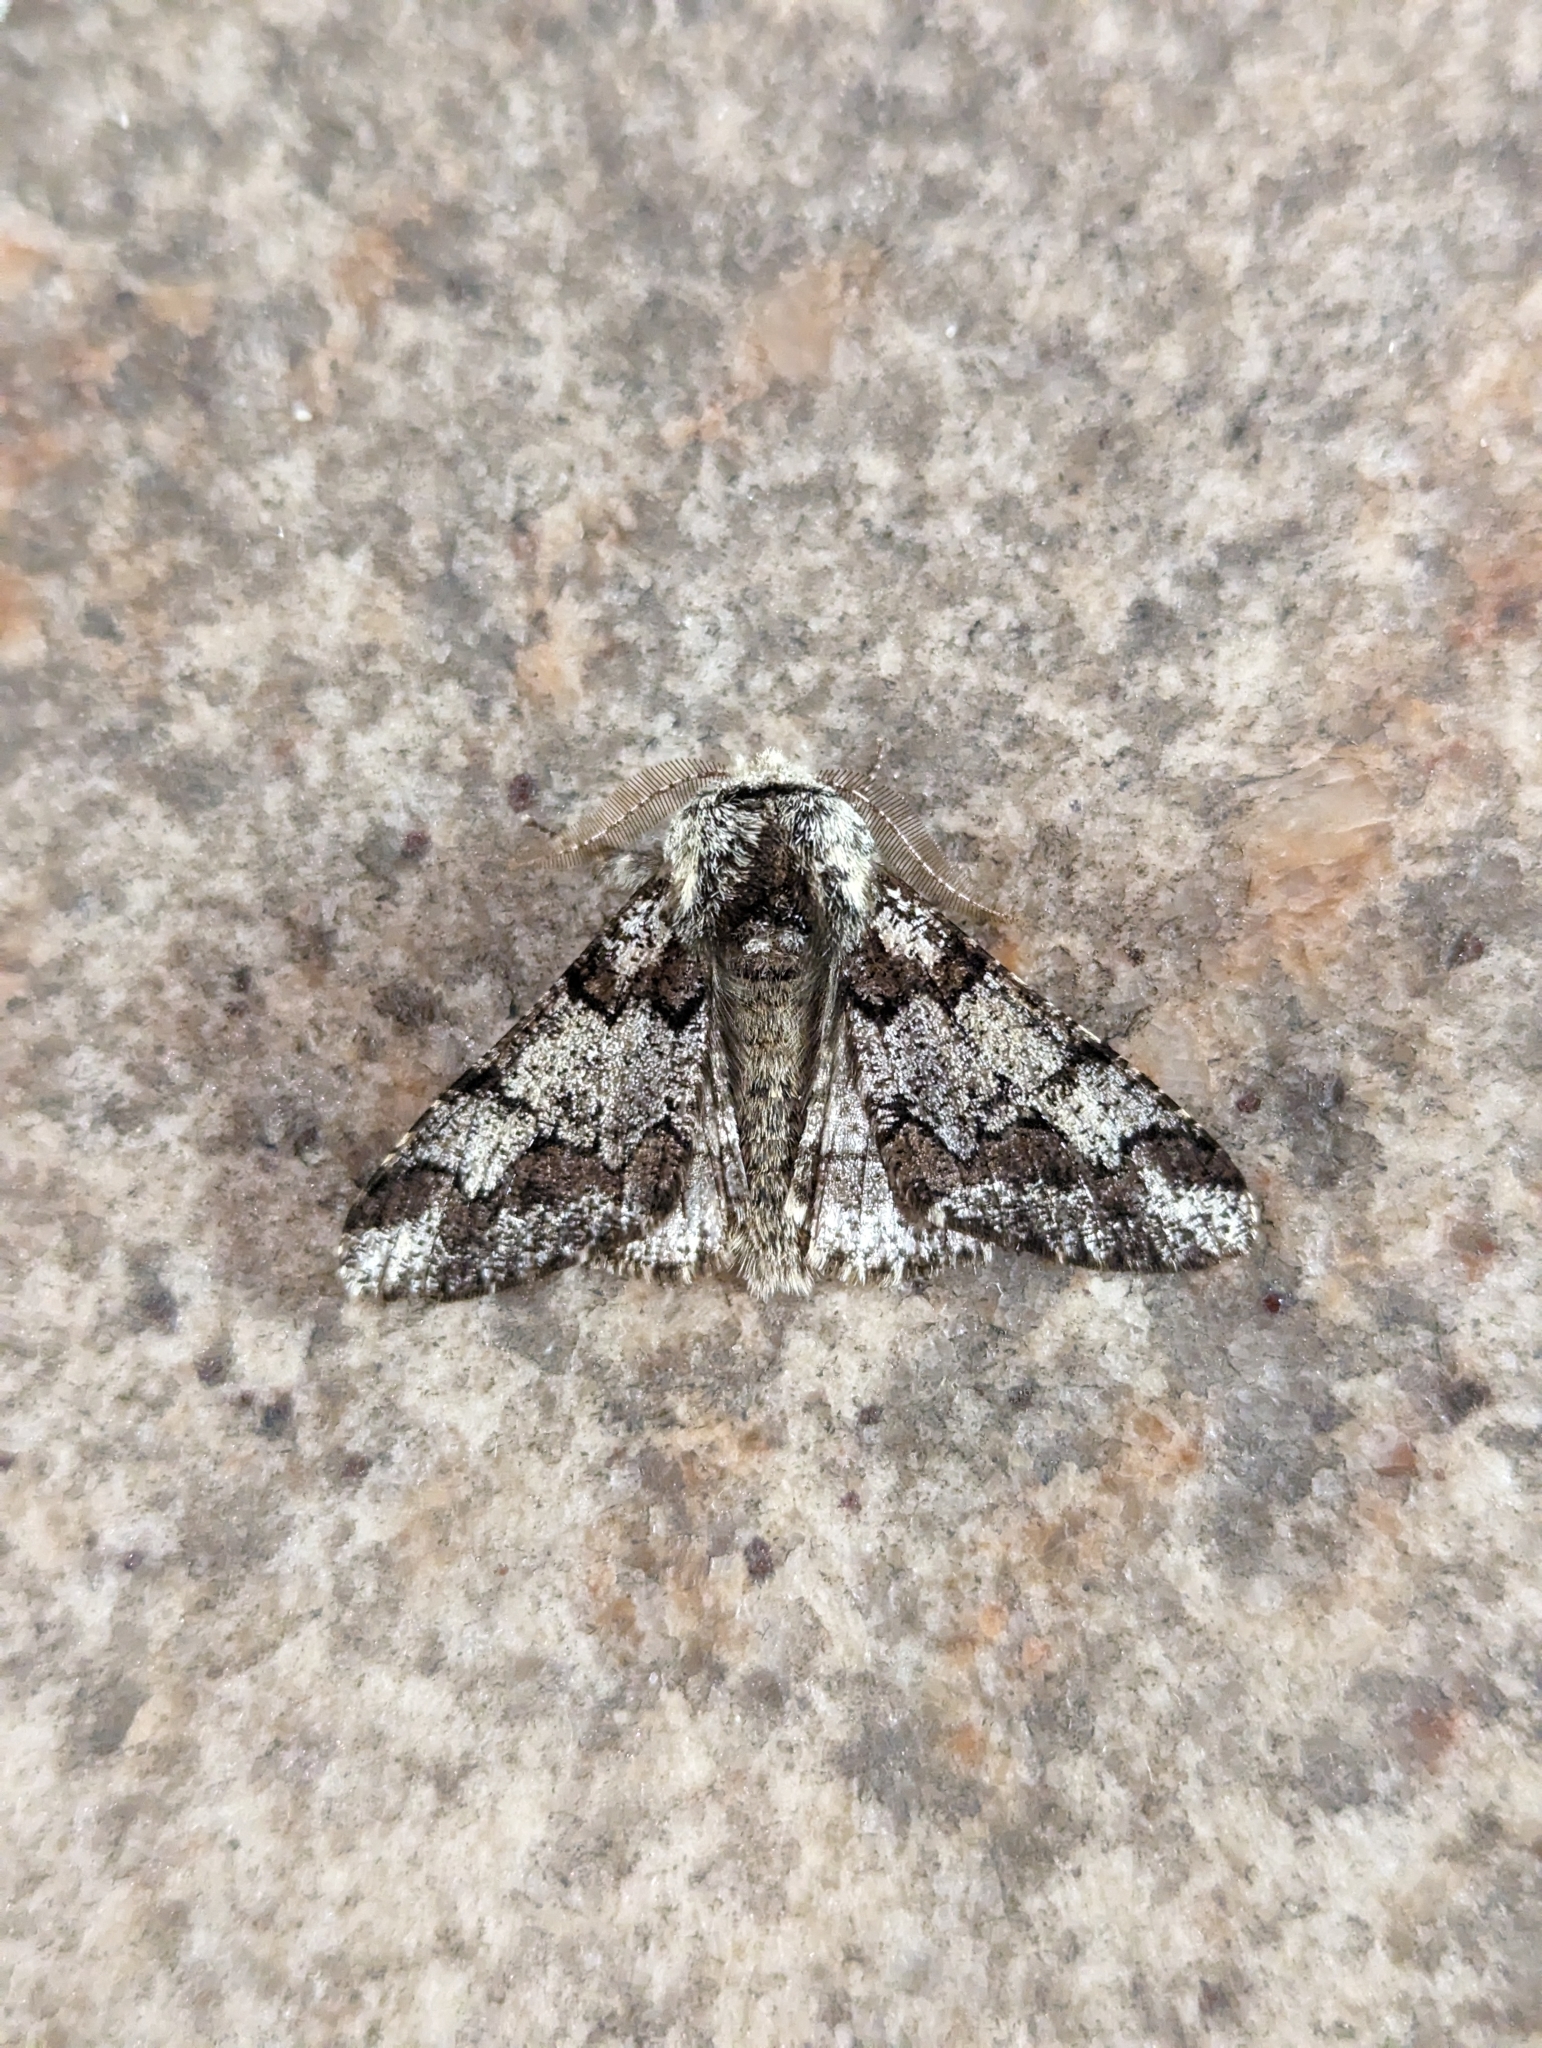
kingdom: Animalia
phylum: Arthropoda
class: Insecta
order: Lepidoptera
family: Geometridae
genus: Biston
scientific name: Biston strataria
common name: Oak beauty
